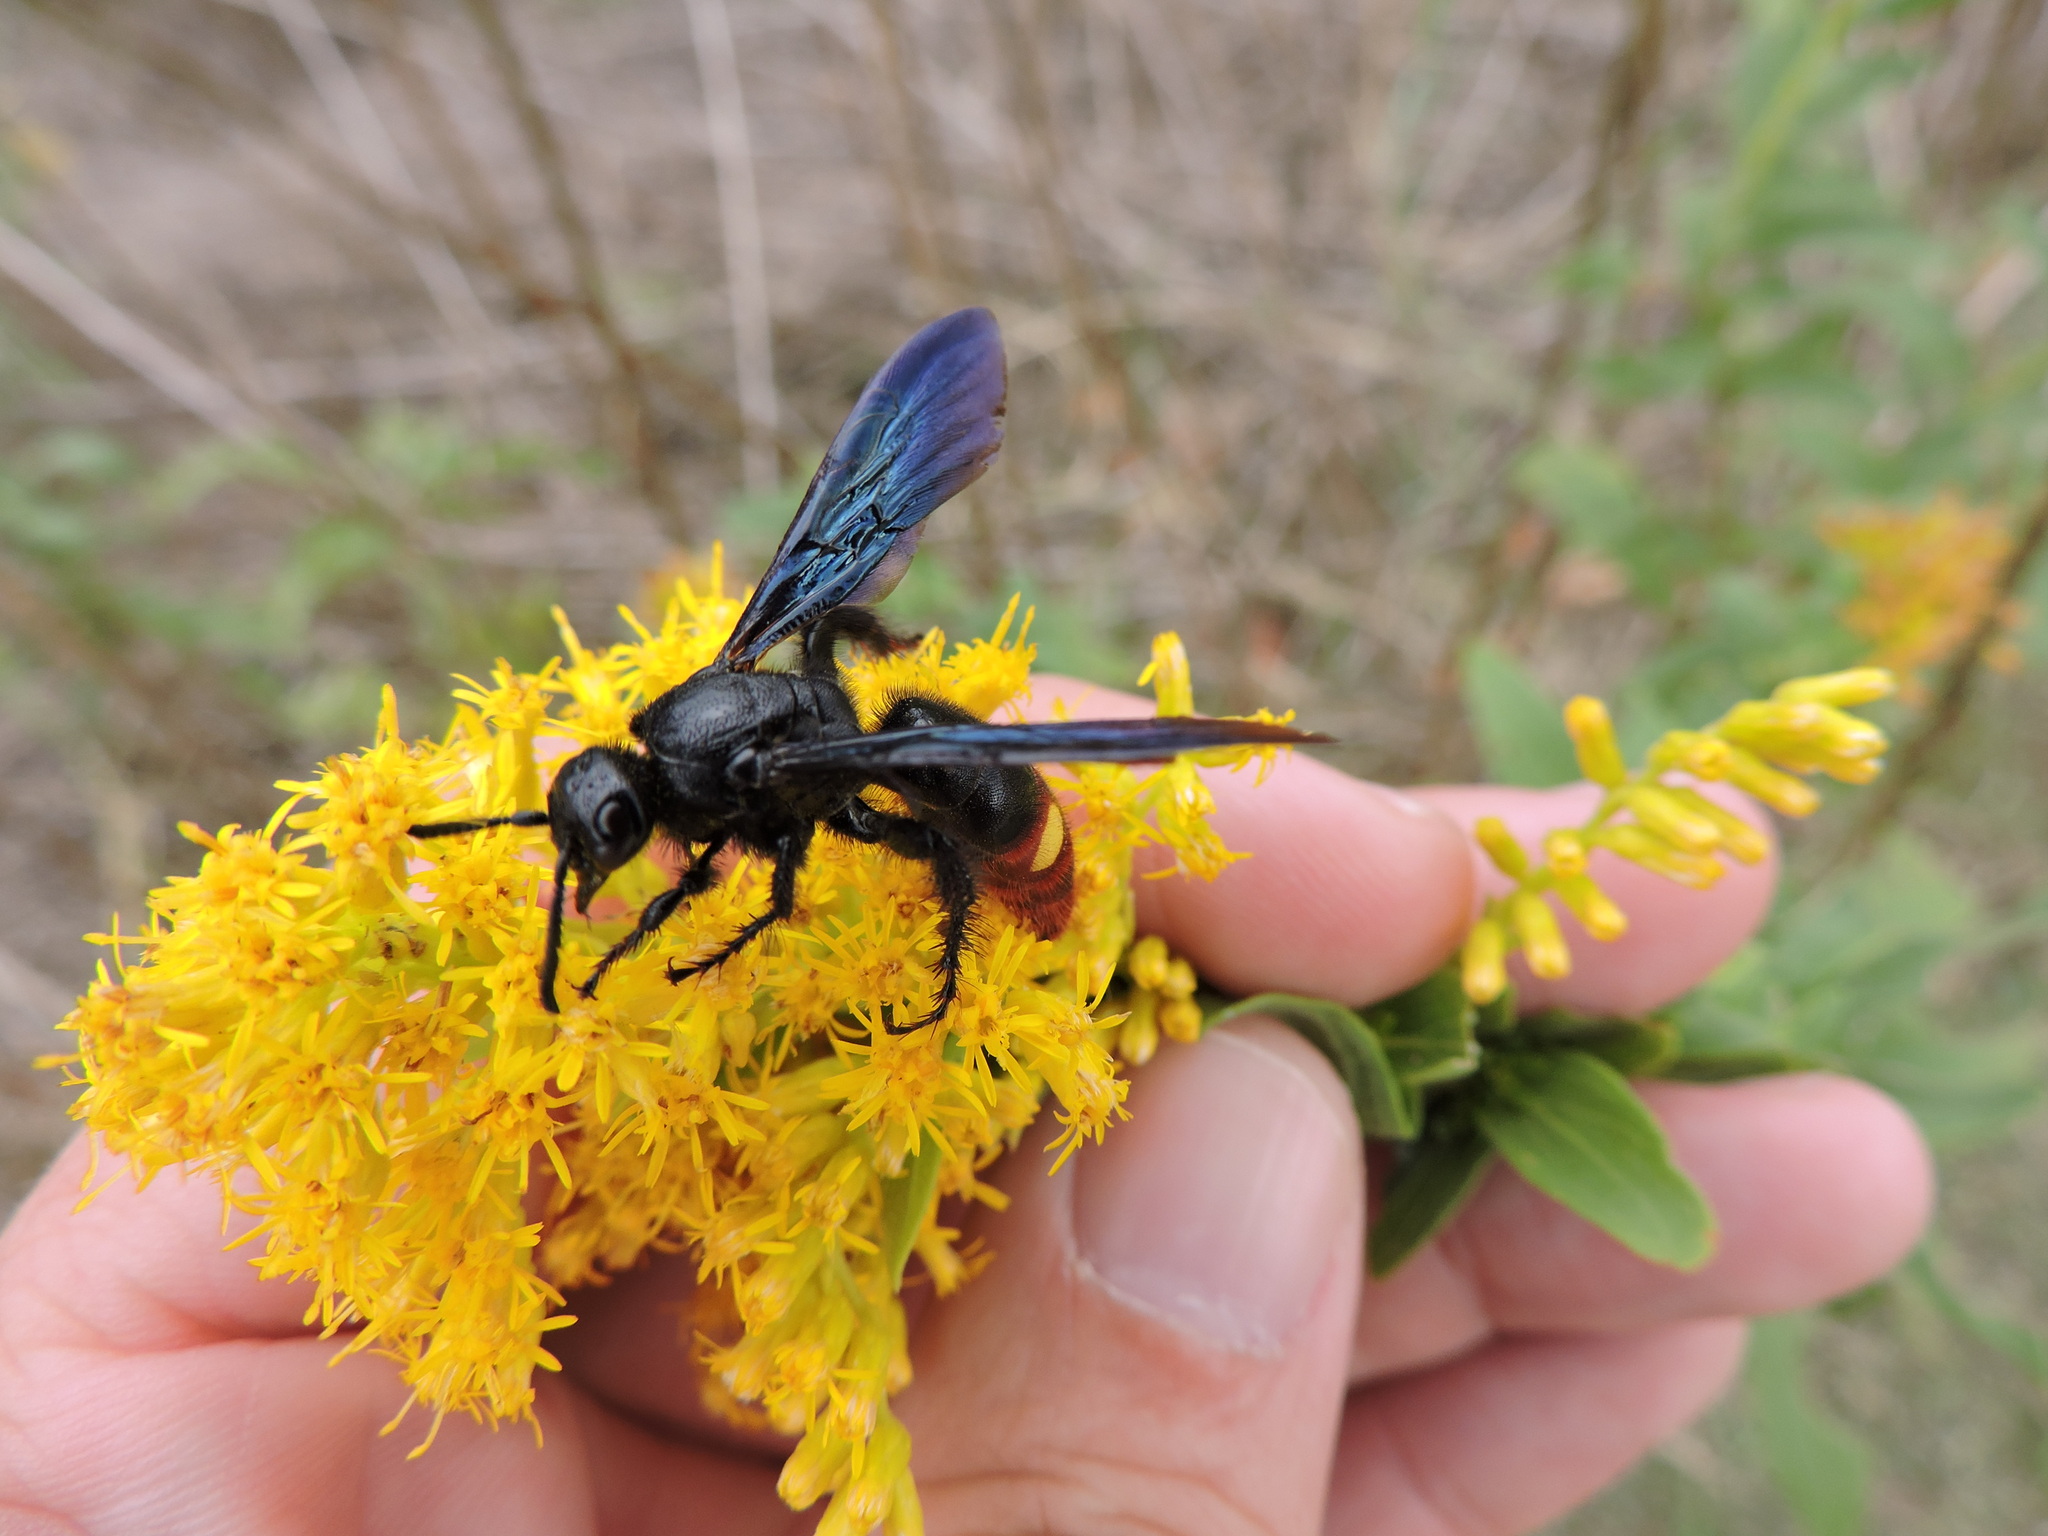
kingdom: Animalia
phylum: Arthropoda
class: Insecta
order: Hymenoptera
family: Scoliidae
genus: Scolia
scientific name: Scolia dubia
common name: Blue-winged scoliid wasp
